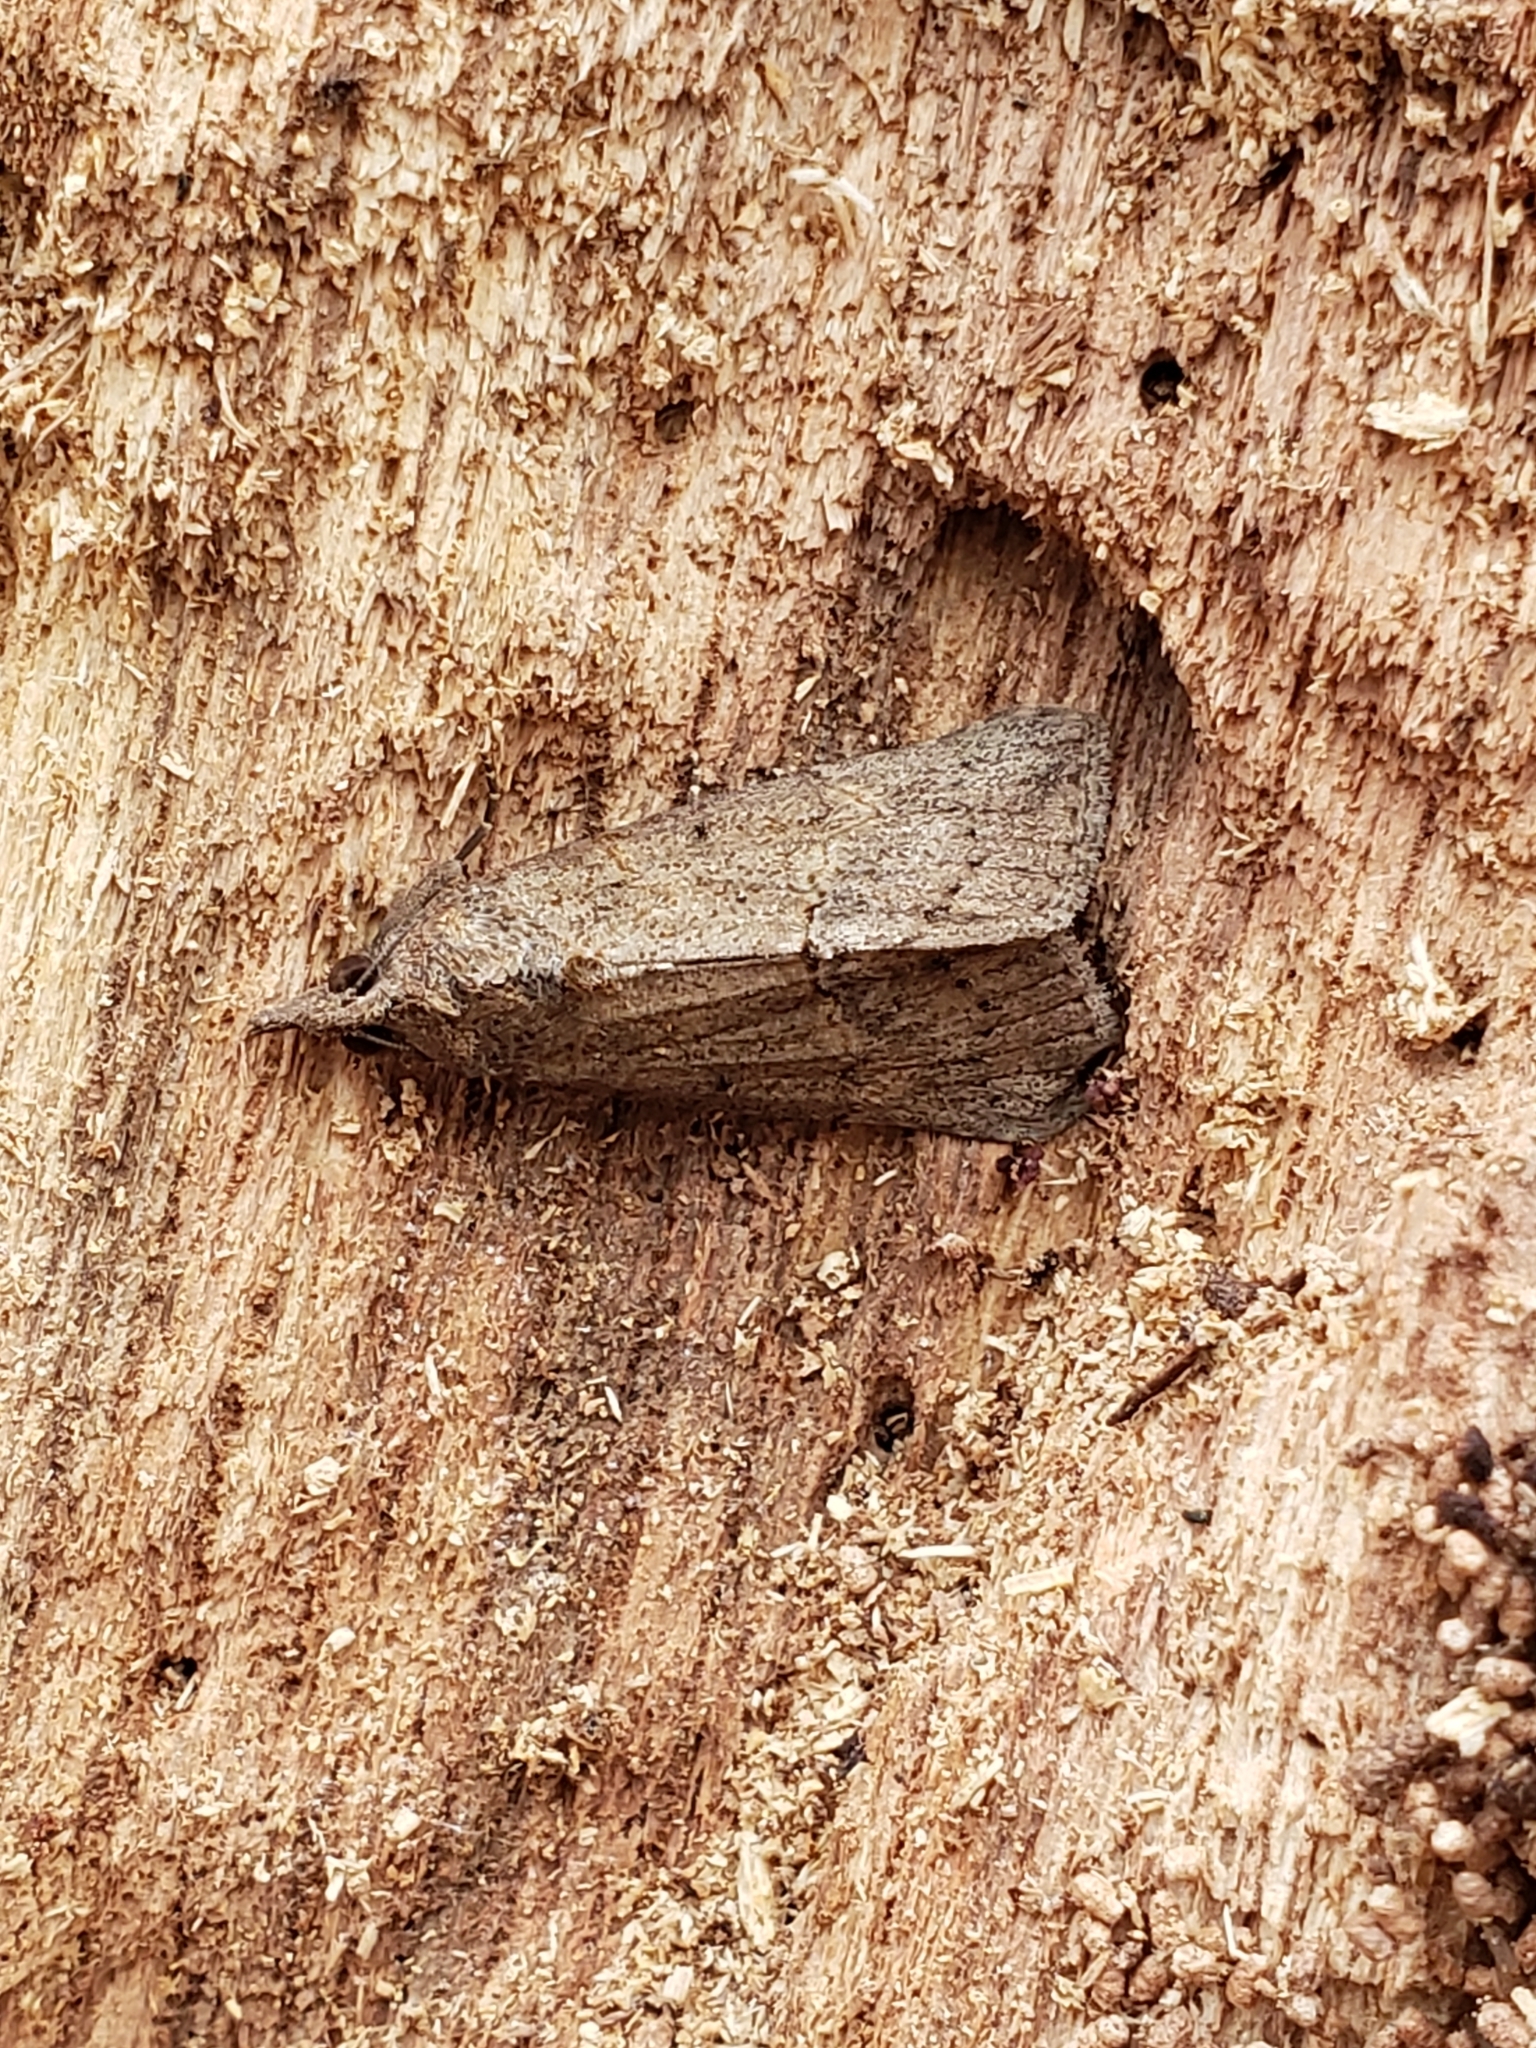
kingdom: Animalia
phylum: Arthropoda
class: Insecta
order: Lepidoptera
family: Erebidae
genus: Hypena
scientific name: Hypena scabra
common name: Green cloverworm
